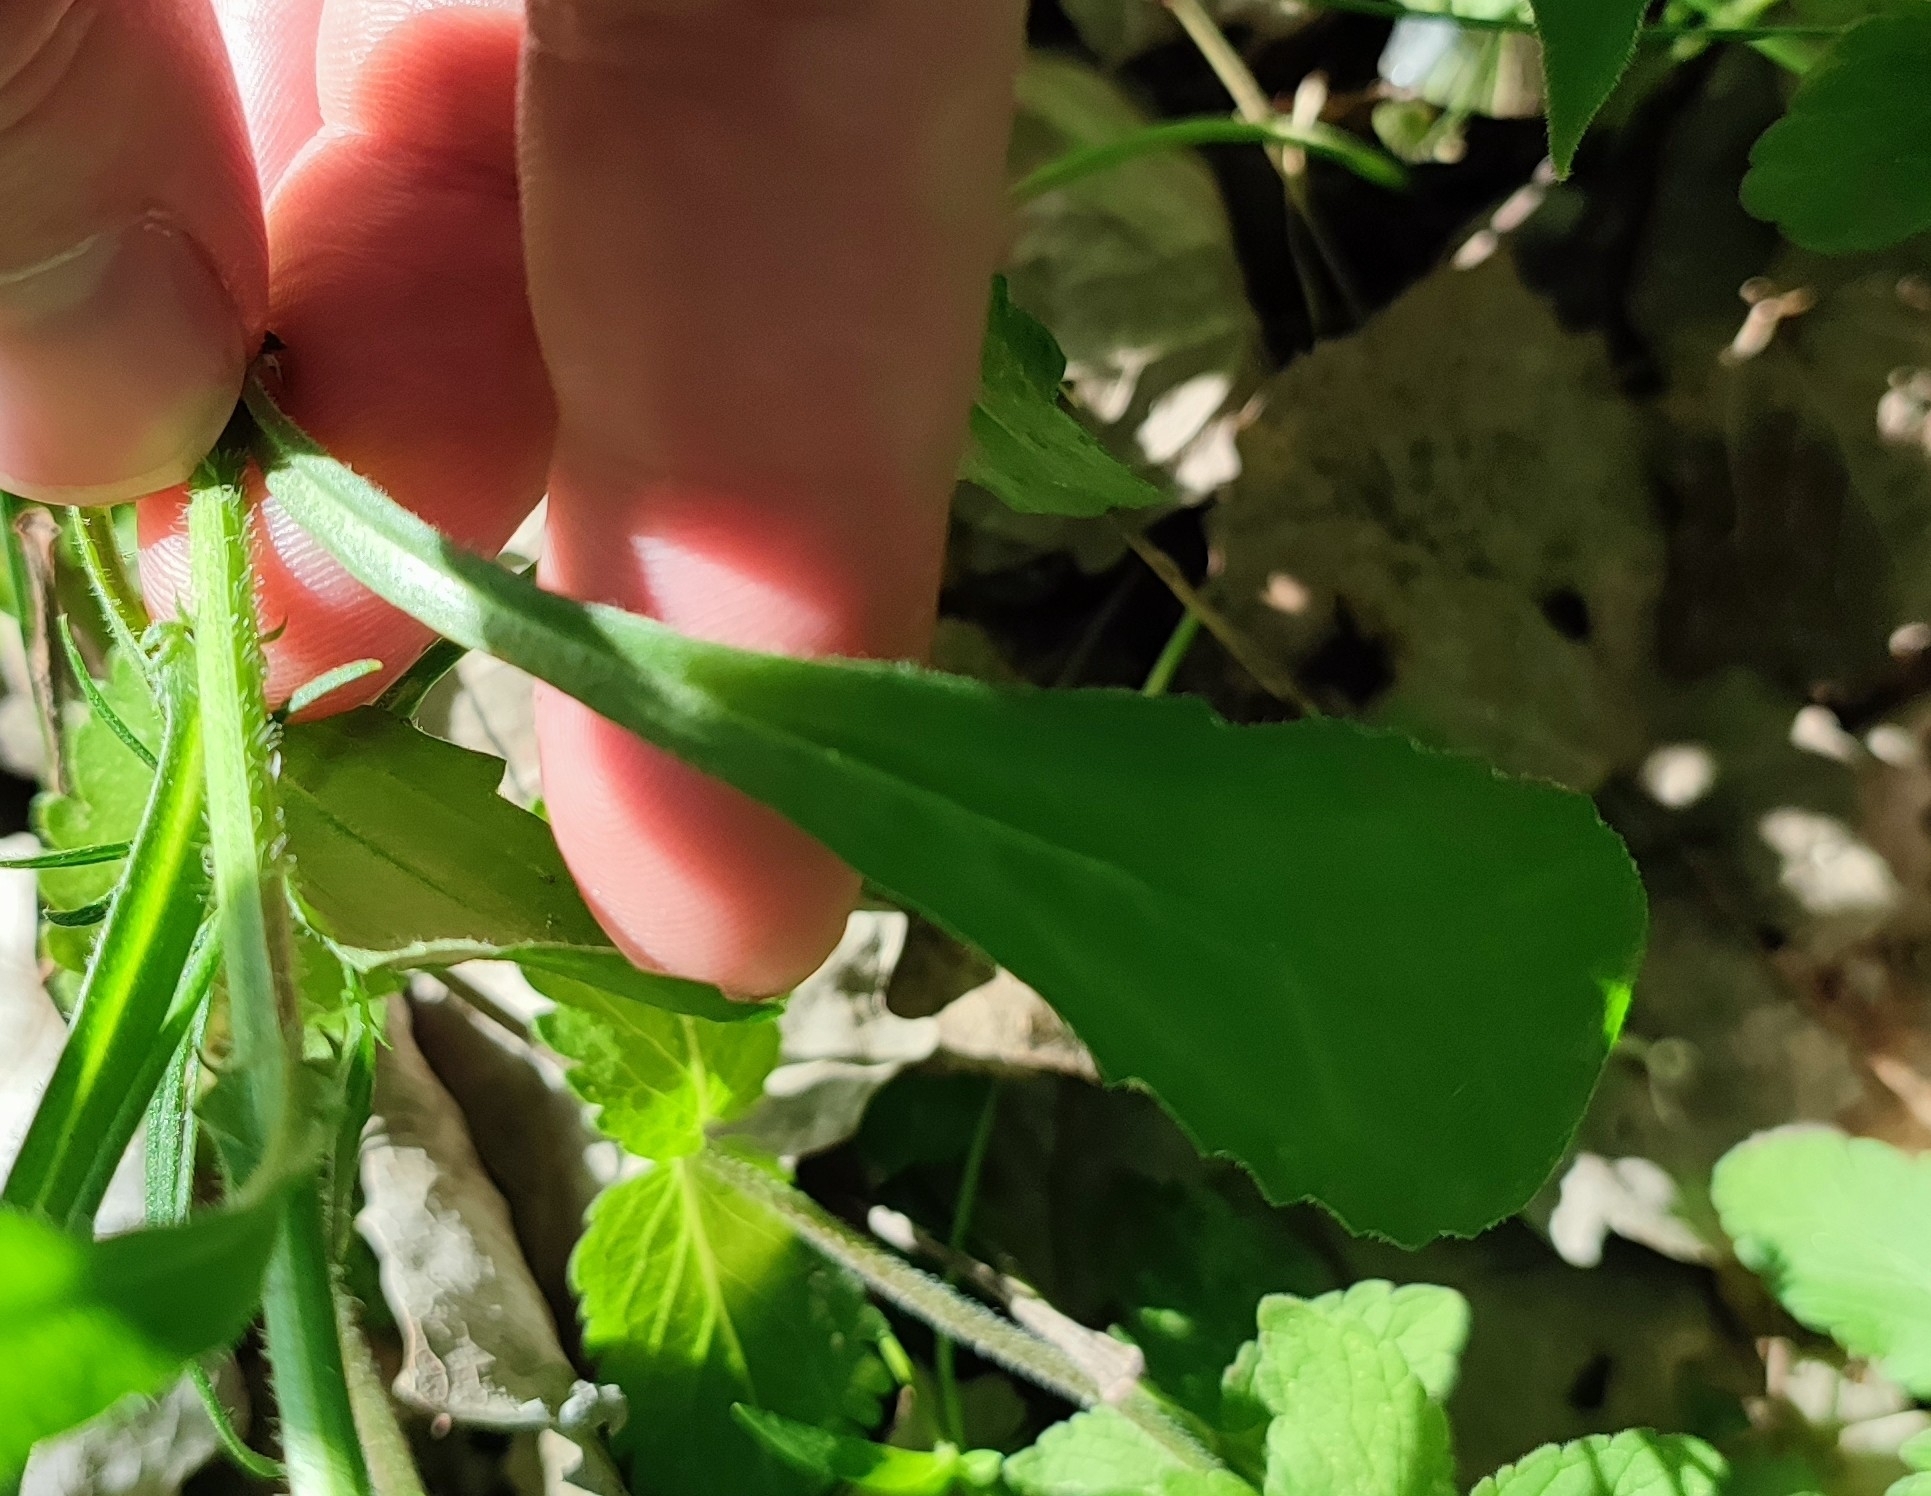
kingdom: Plantae
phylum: Tracheophyta
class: Magnoliopsida
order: Asterales
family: Asteraceae
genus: Leucanthemum
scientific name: Leucanthemum ircutianum
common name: Daisy
